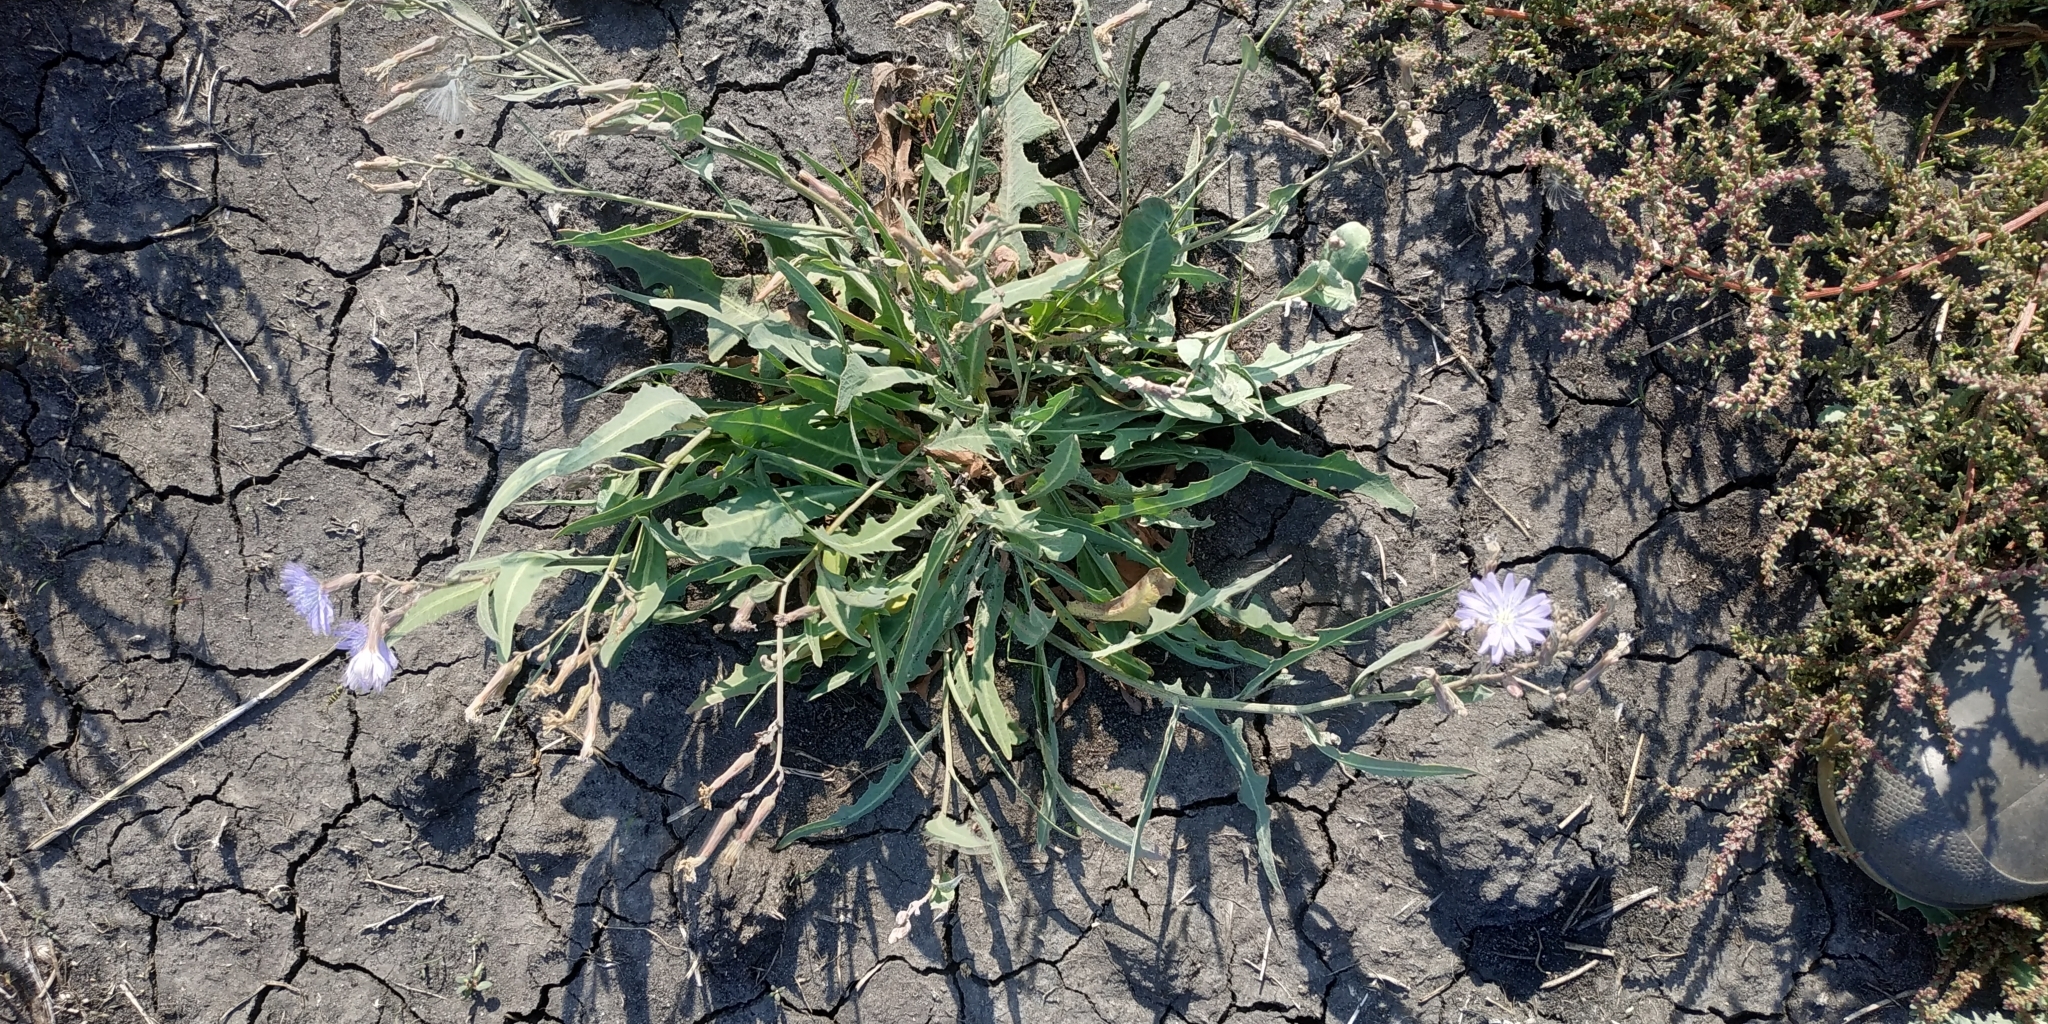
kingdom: Plantae
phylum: Tracheophyta
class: Magnoliopsida
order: Asterales
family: Asteraceae
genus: Lactuca
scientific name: Lactuca tatarica
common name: Blue lettuce
